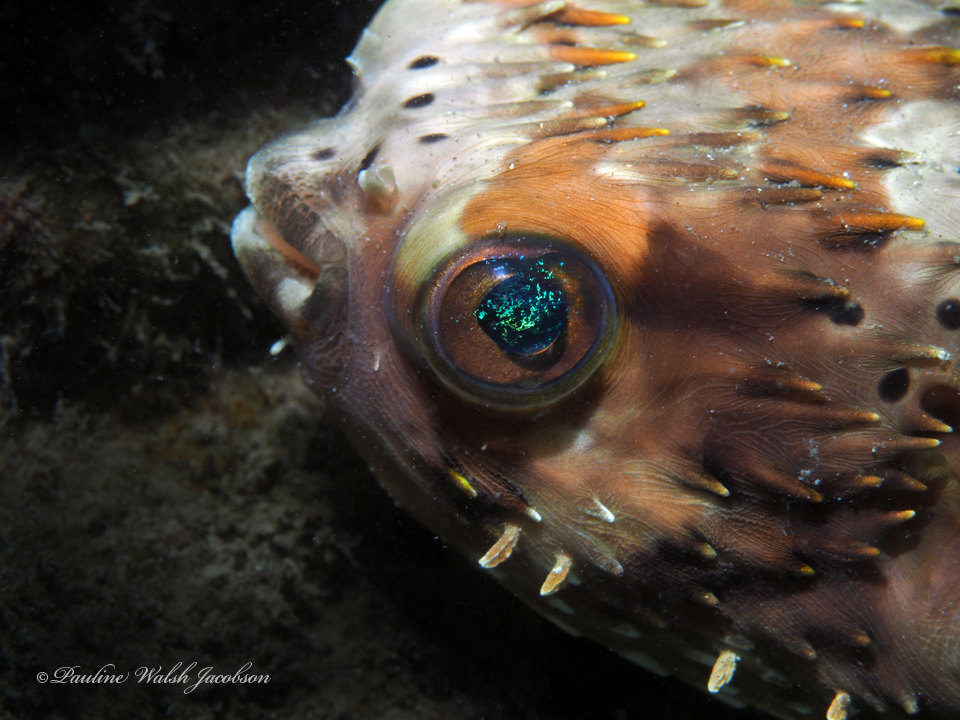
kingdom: Animalia
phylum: Chordata
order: Tetraodontiformes
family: Diodontidae
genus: Diodon
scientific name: Diodon holocanthus
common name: Balloonfish
